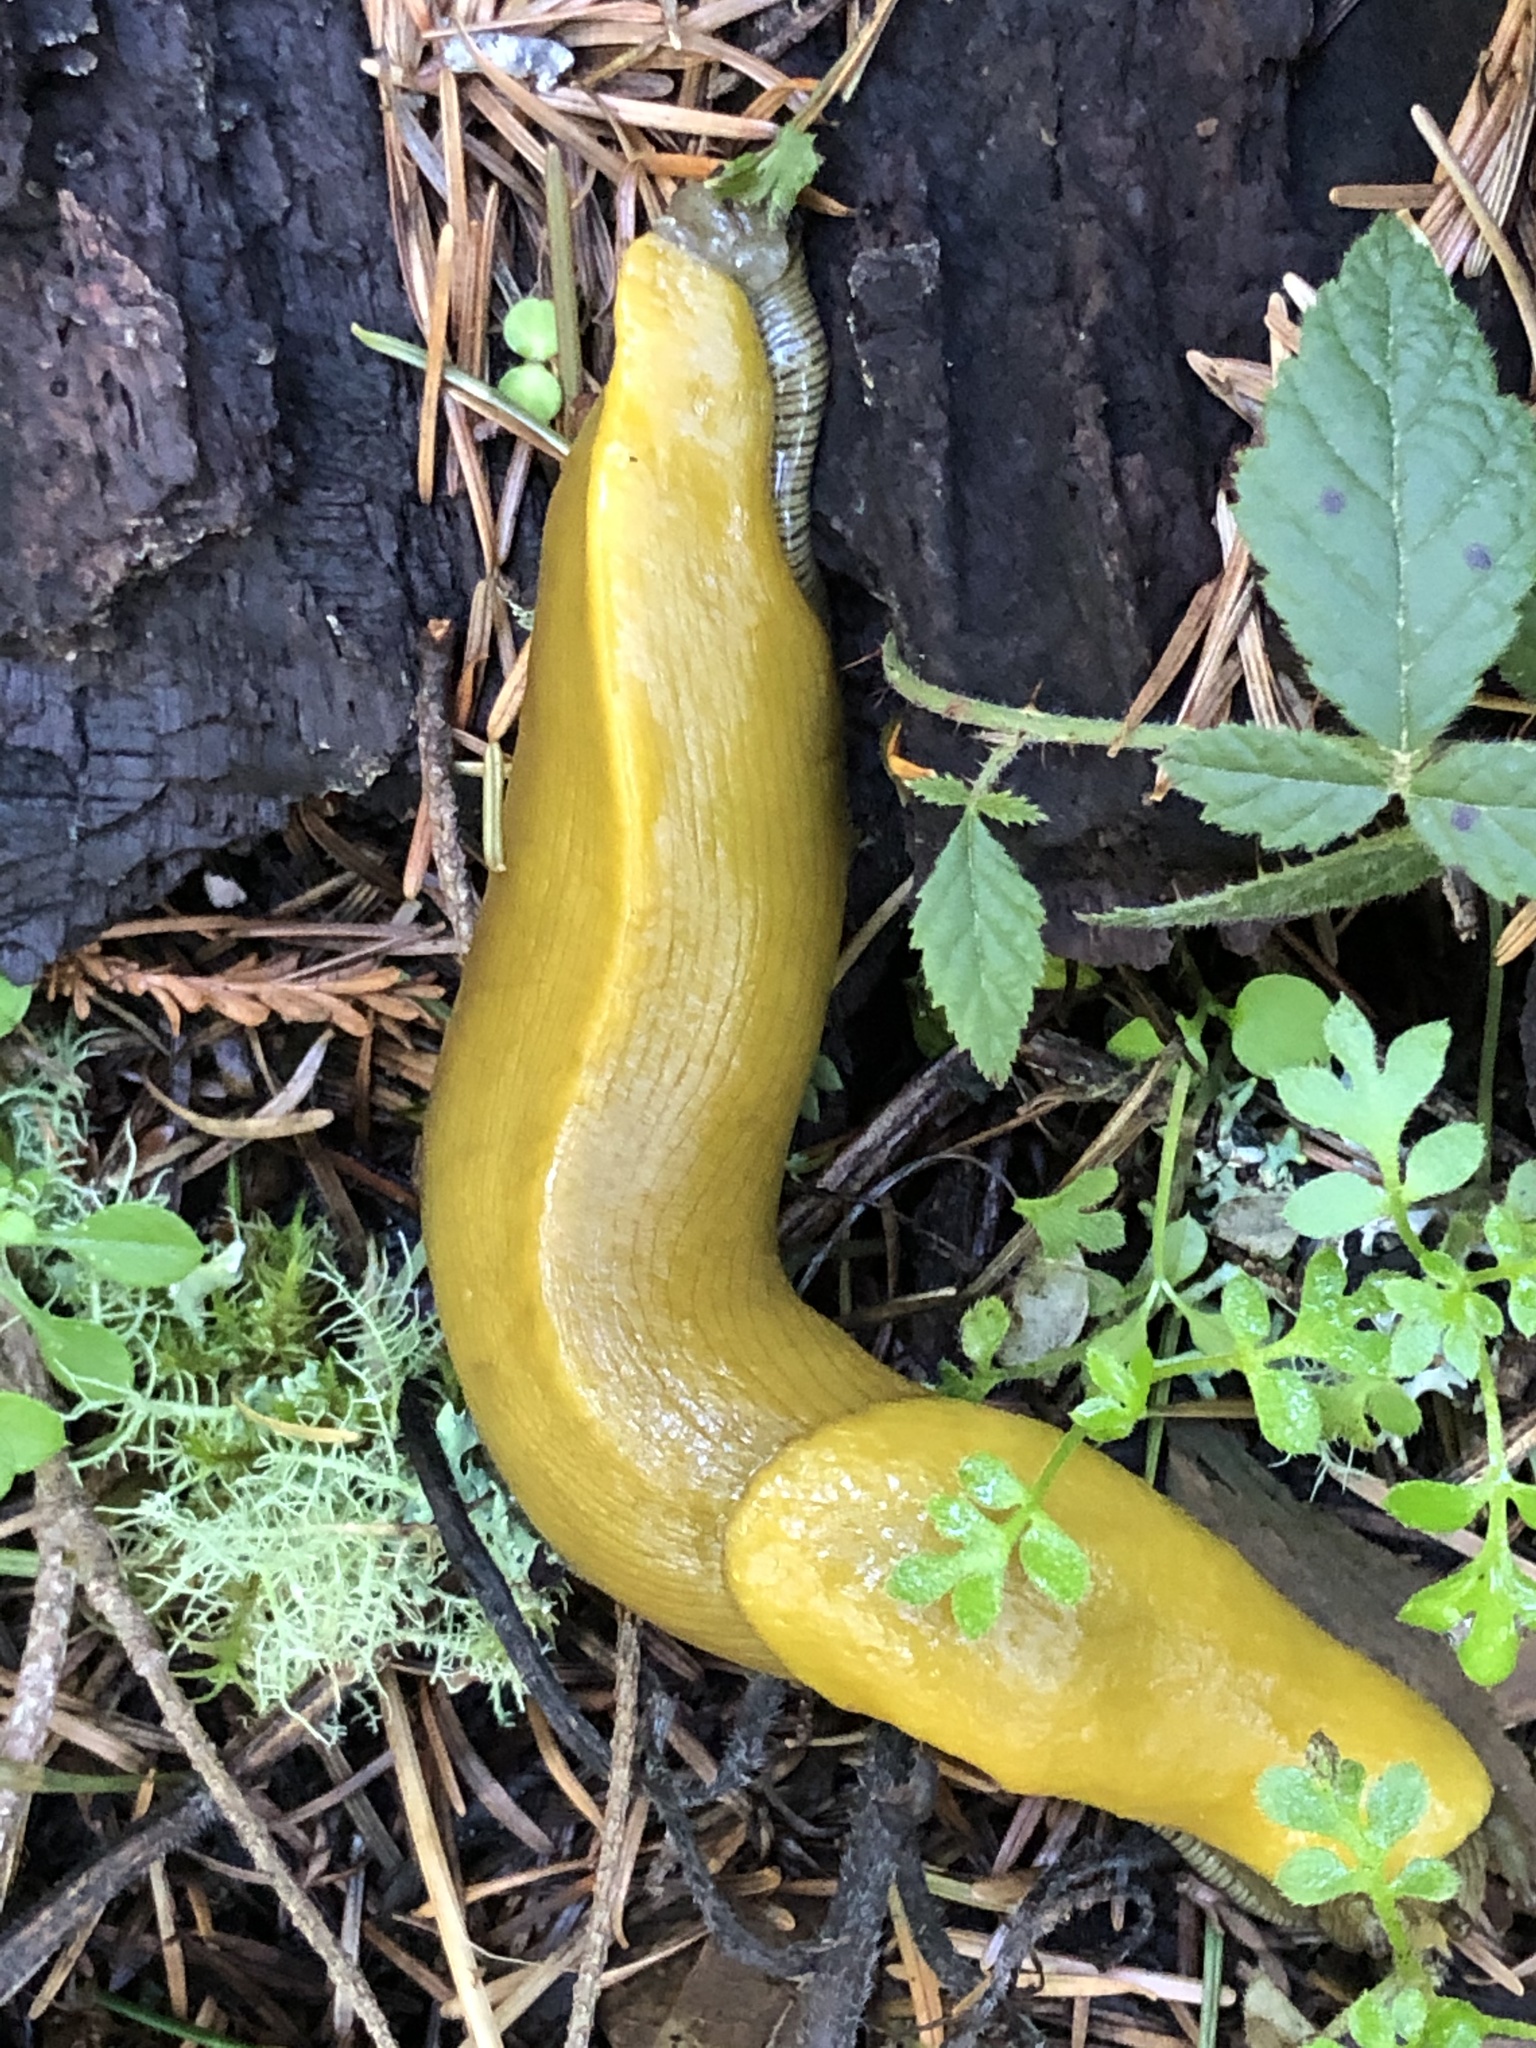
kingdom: Animalia
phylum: Mollusca
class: Gastropoda
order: Stylommatophora
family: Ariolimacidae
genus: Ariolimax
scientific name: Ariolimax californicus
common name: California banana slug
